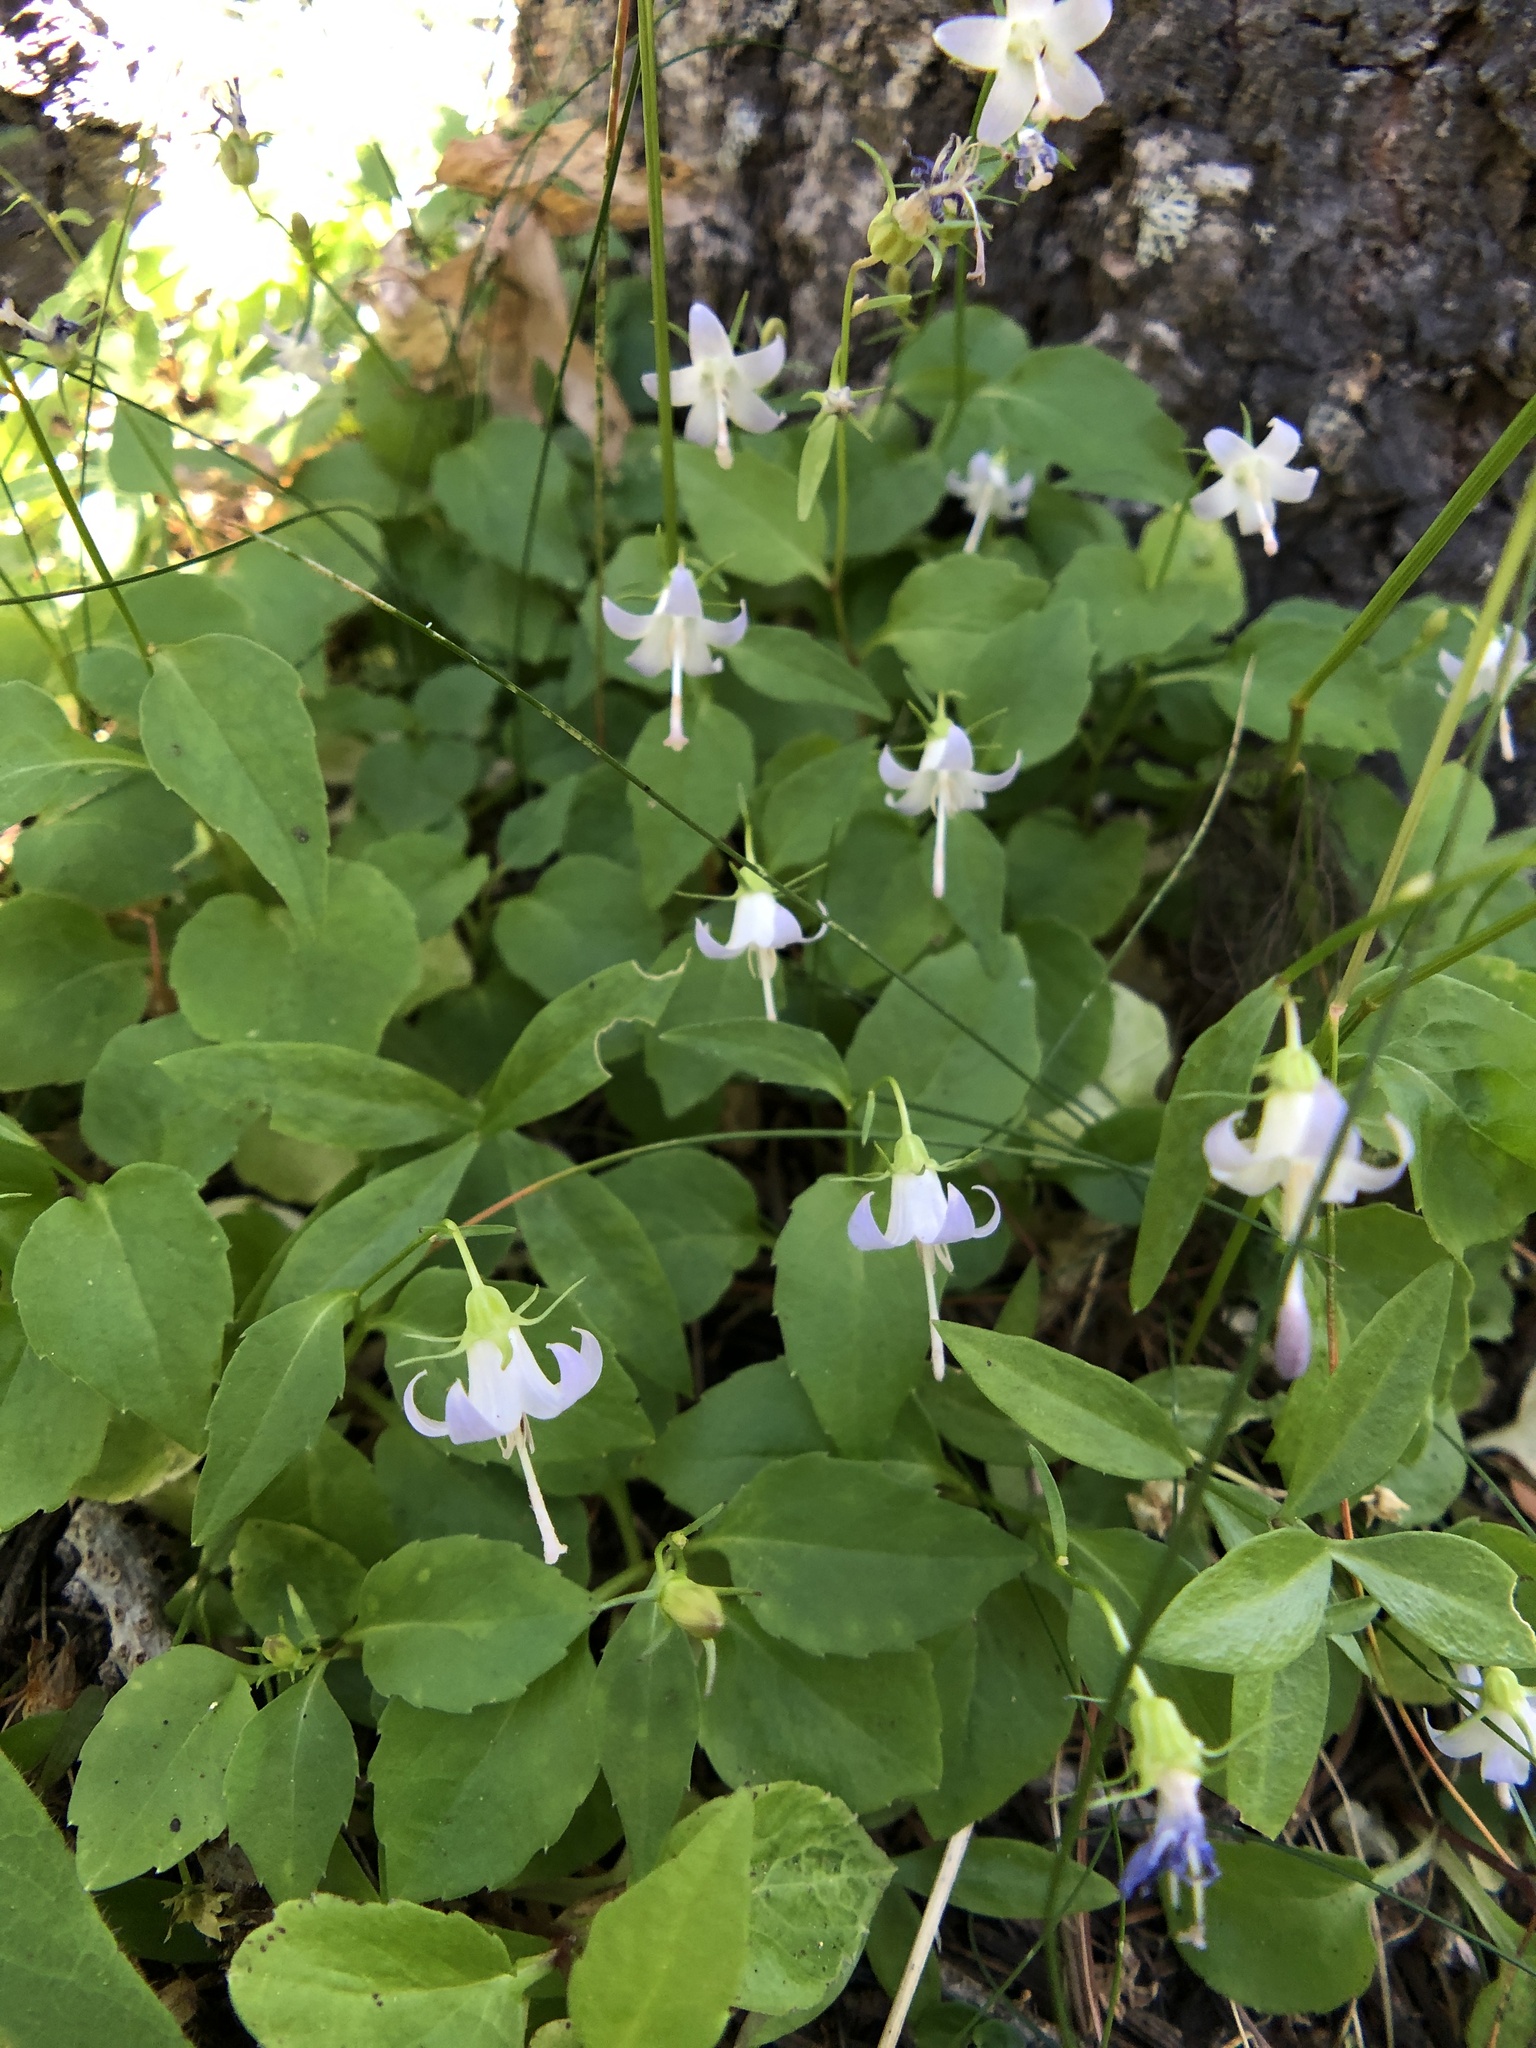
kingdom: Plantae
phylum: Tracheophyta
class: Magnoliopsida
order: Asterales
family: Campanulaceae
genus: Campanula
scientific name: Campanula scouleri
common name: Scouler's harebell
